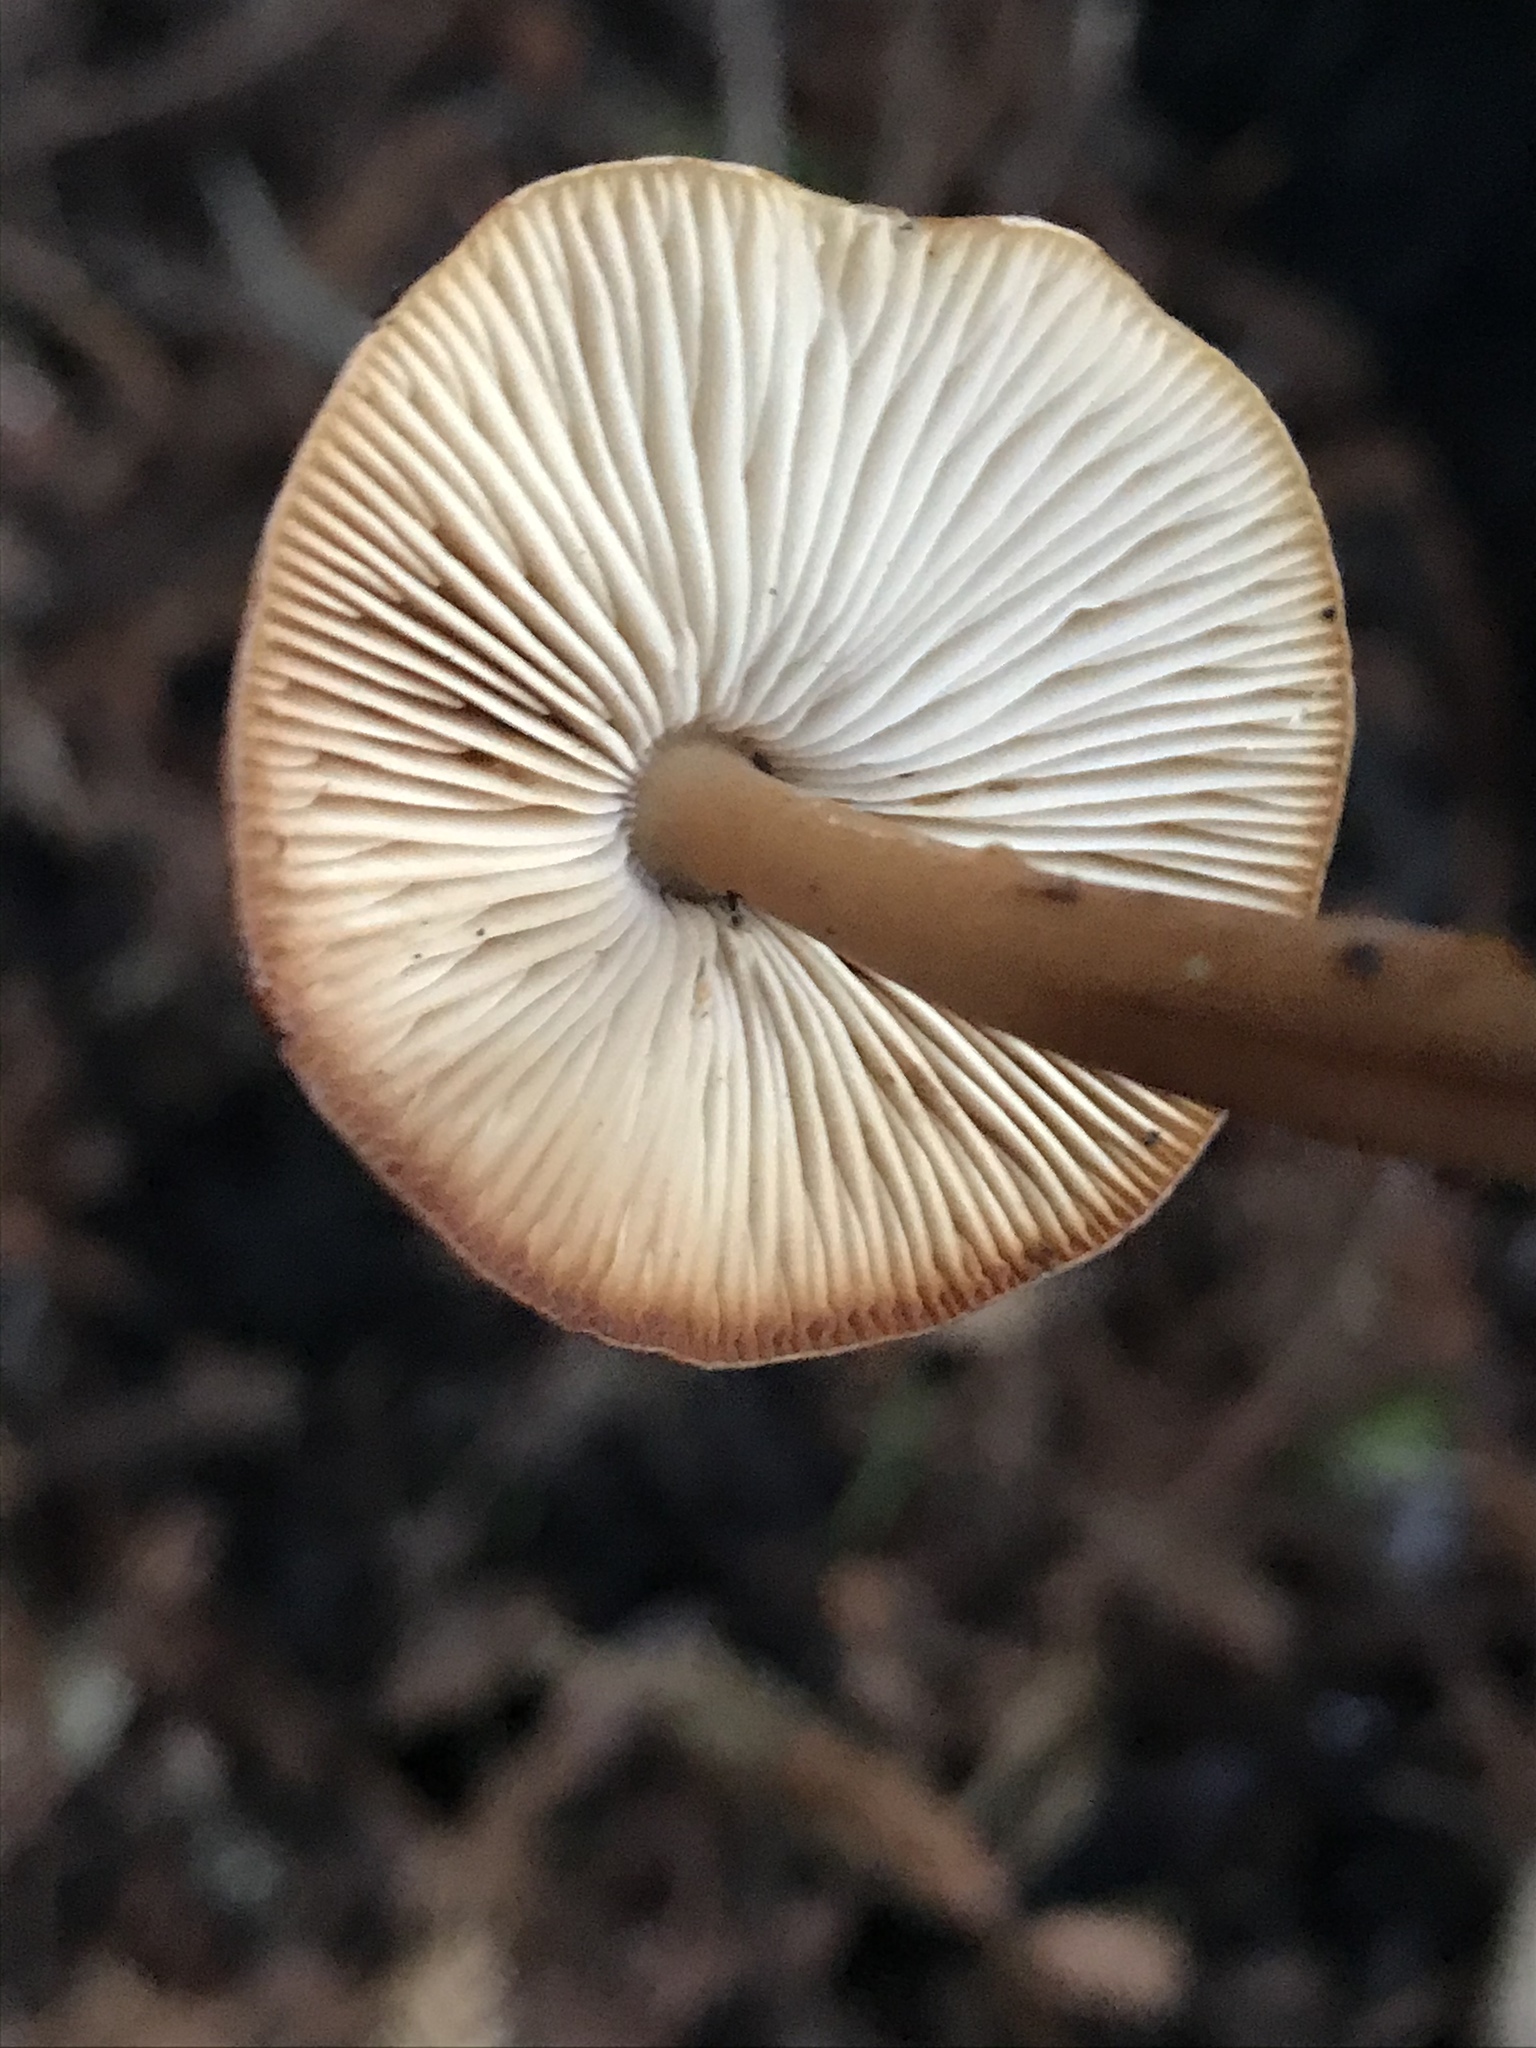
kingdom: Fungi
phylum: Basidiomycota
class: Agaricomycetes
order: Agaricales
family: Tricholomataceae
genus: Caulorhiza
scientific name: Caulorhiza umbonata
